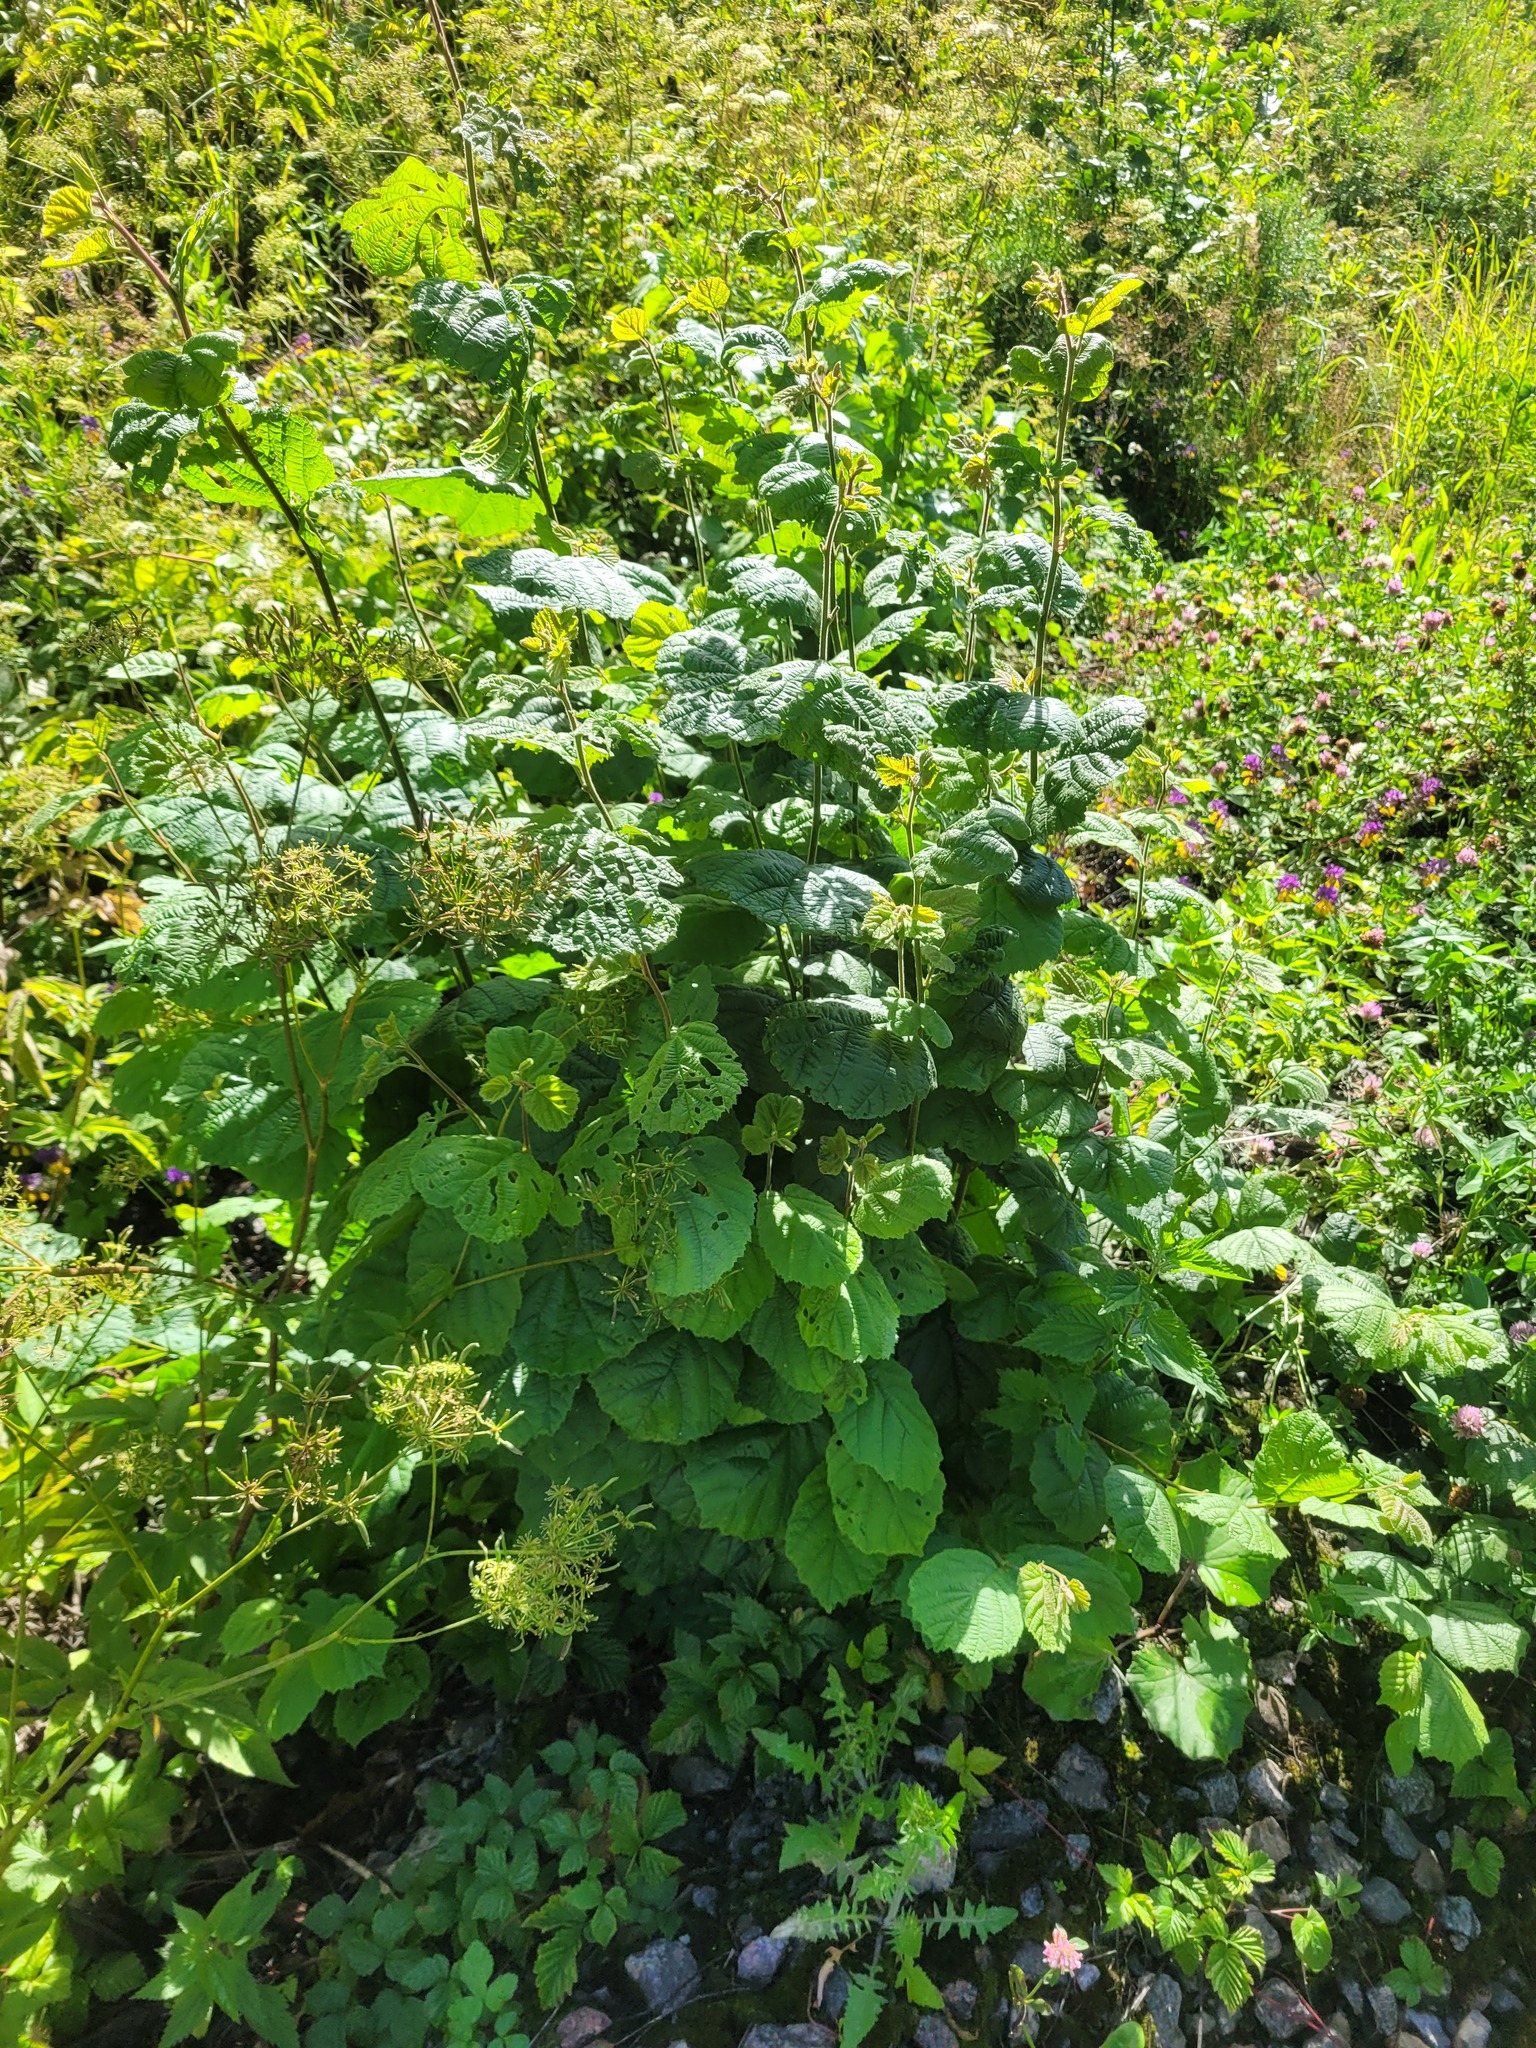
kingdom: Plantae
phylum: Tracheophyta
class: Magnoliopsida
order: Fagales
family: Betulaceae
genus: Corylus
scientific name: Corylus avellana
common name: European hazel
